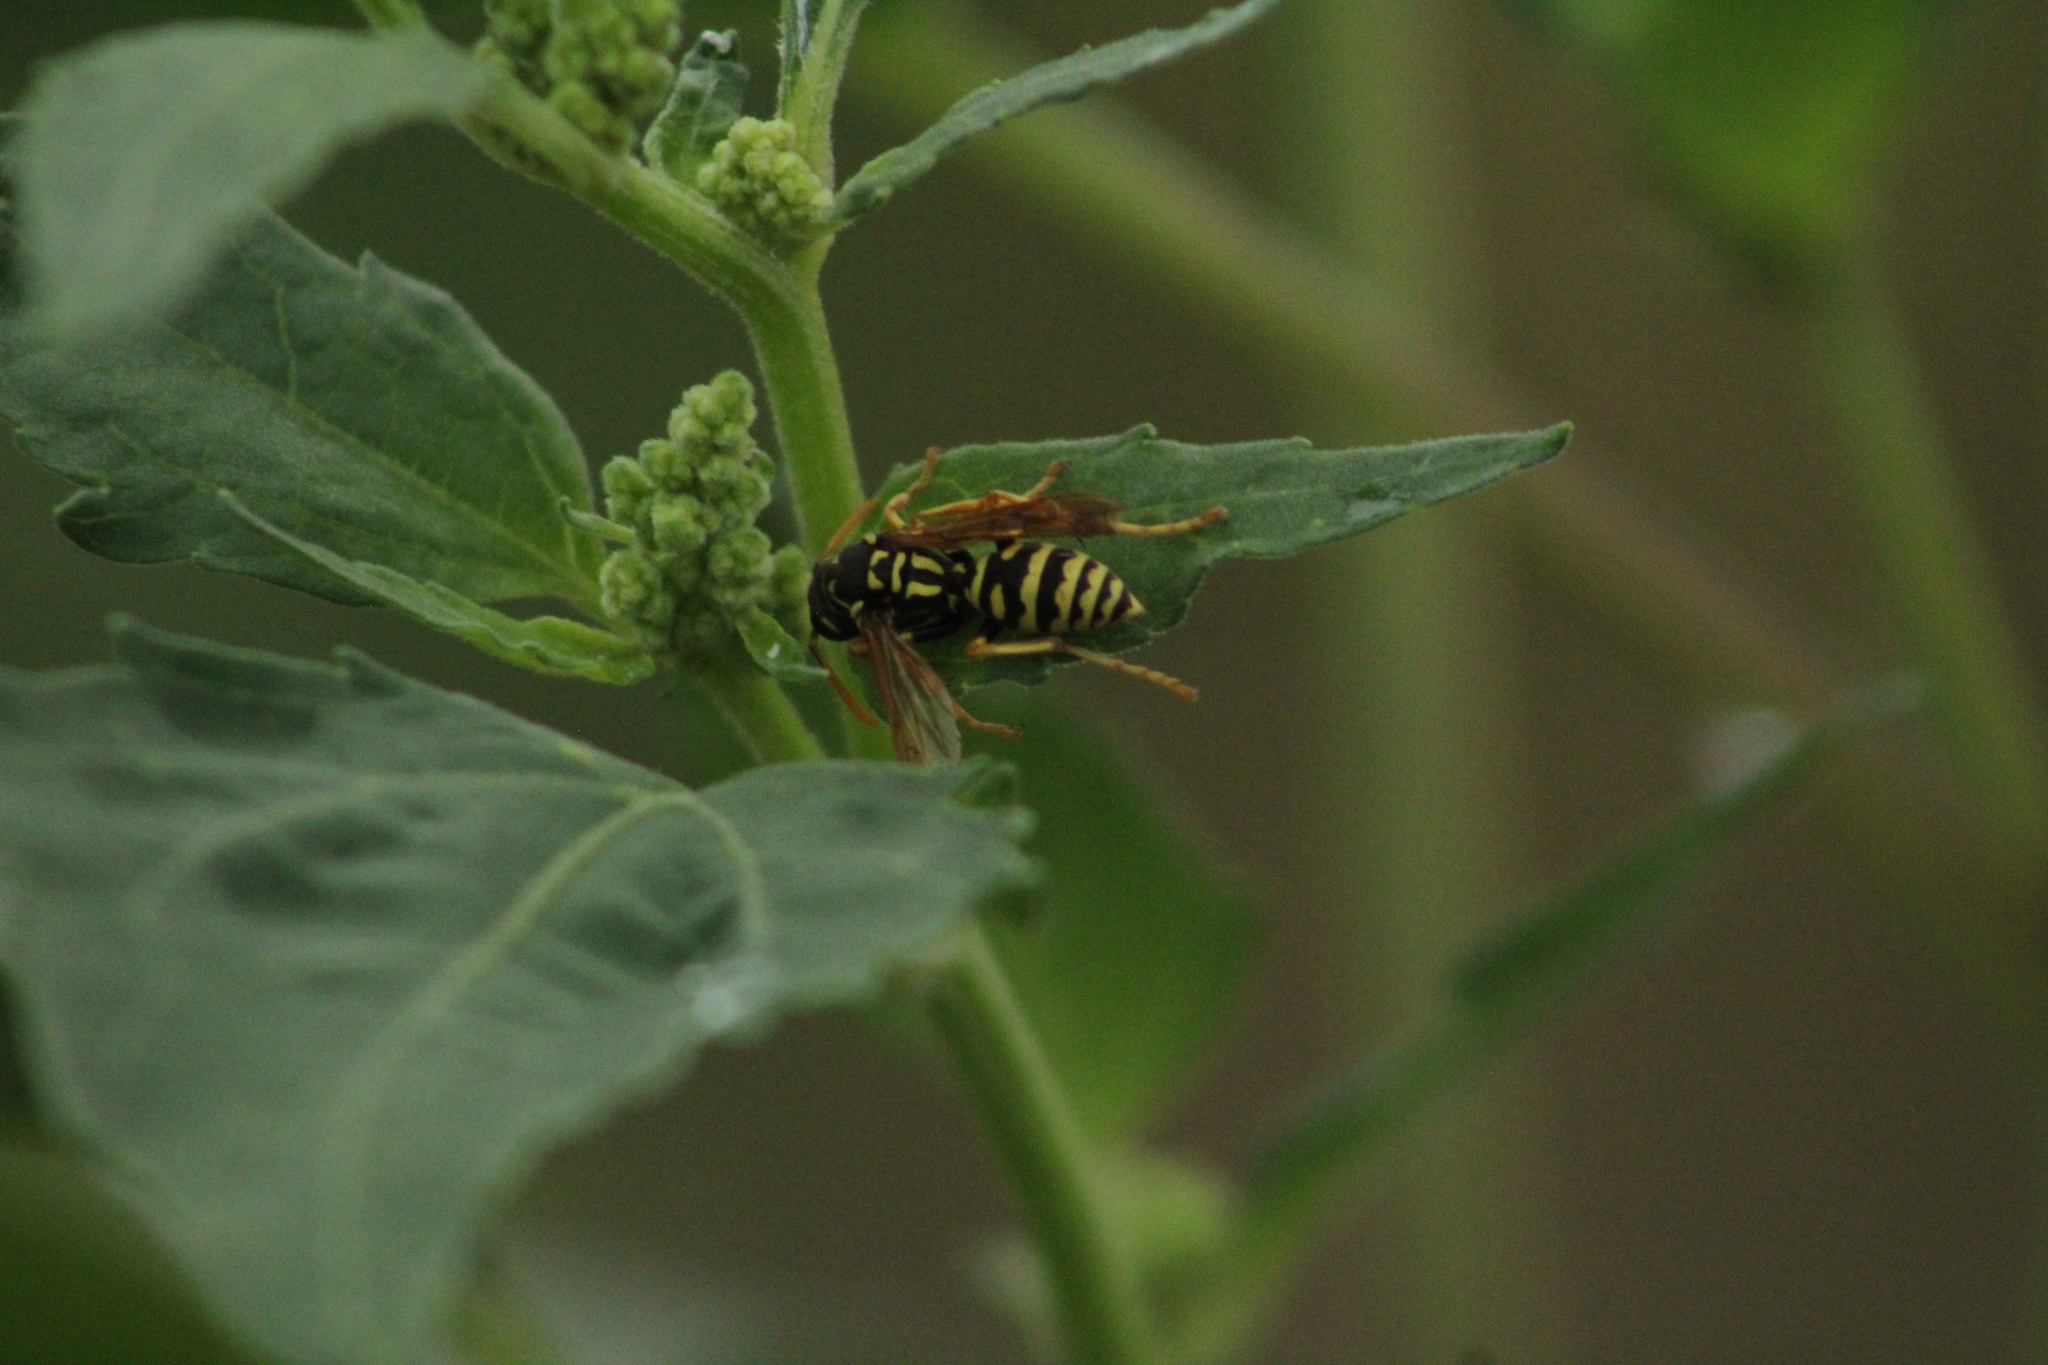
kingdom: Animalia
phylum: Arthropoda
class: Insecta
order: Hymenoptera
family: Eumenidae
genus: Polistes
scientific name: Polistes dominula
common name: Paper wasp
